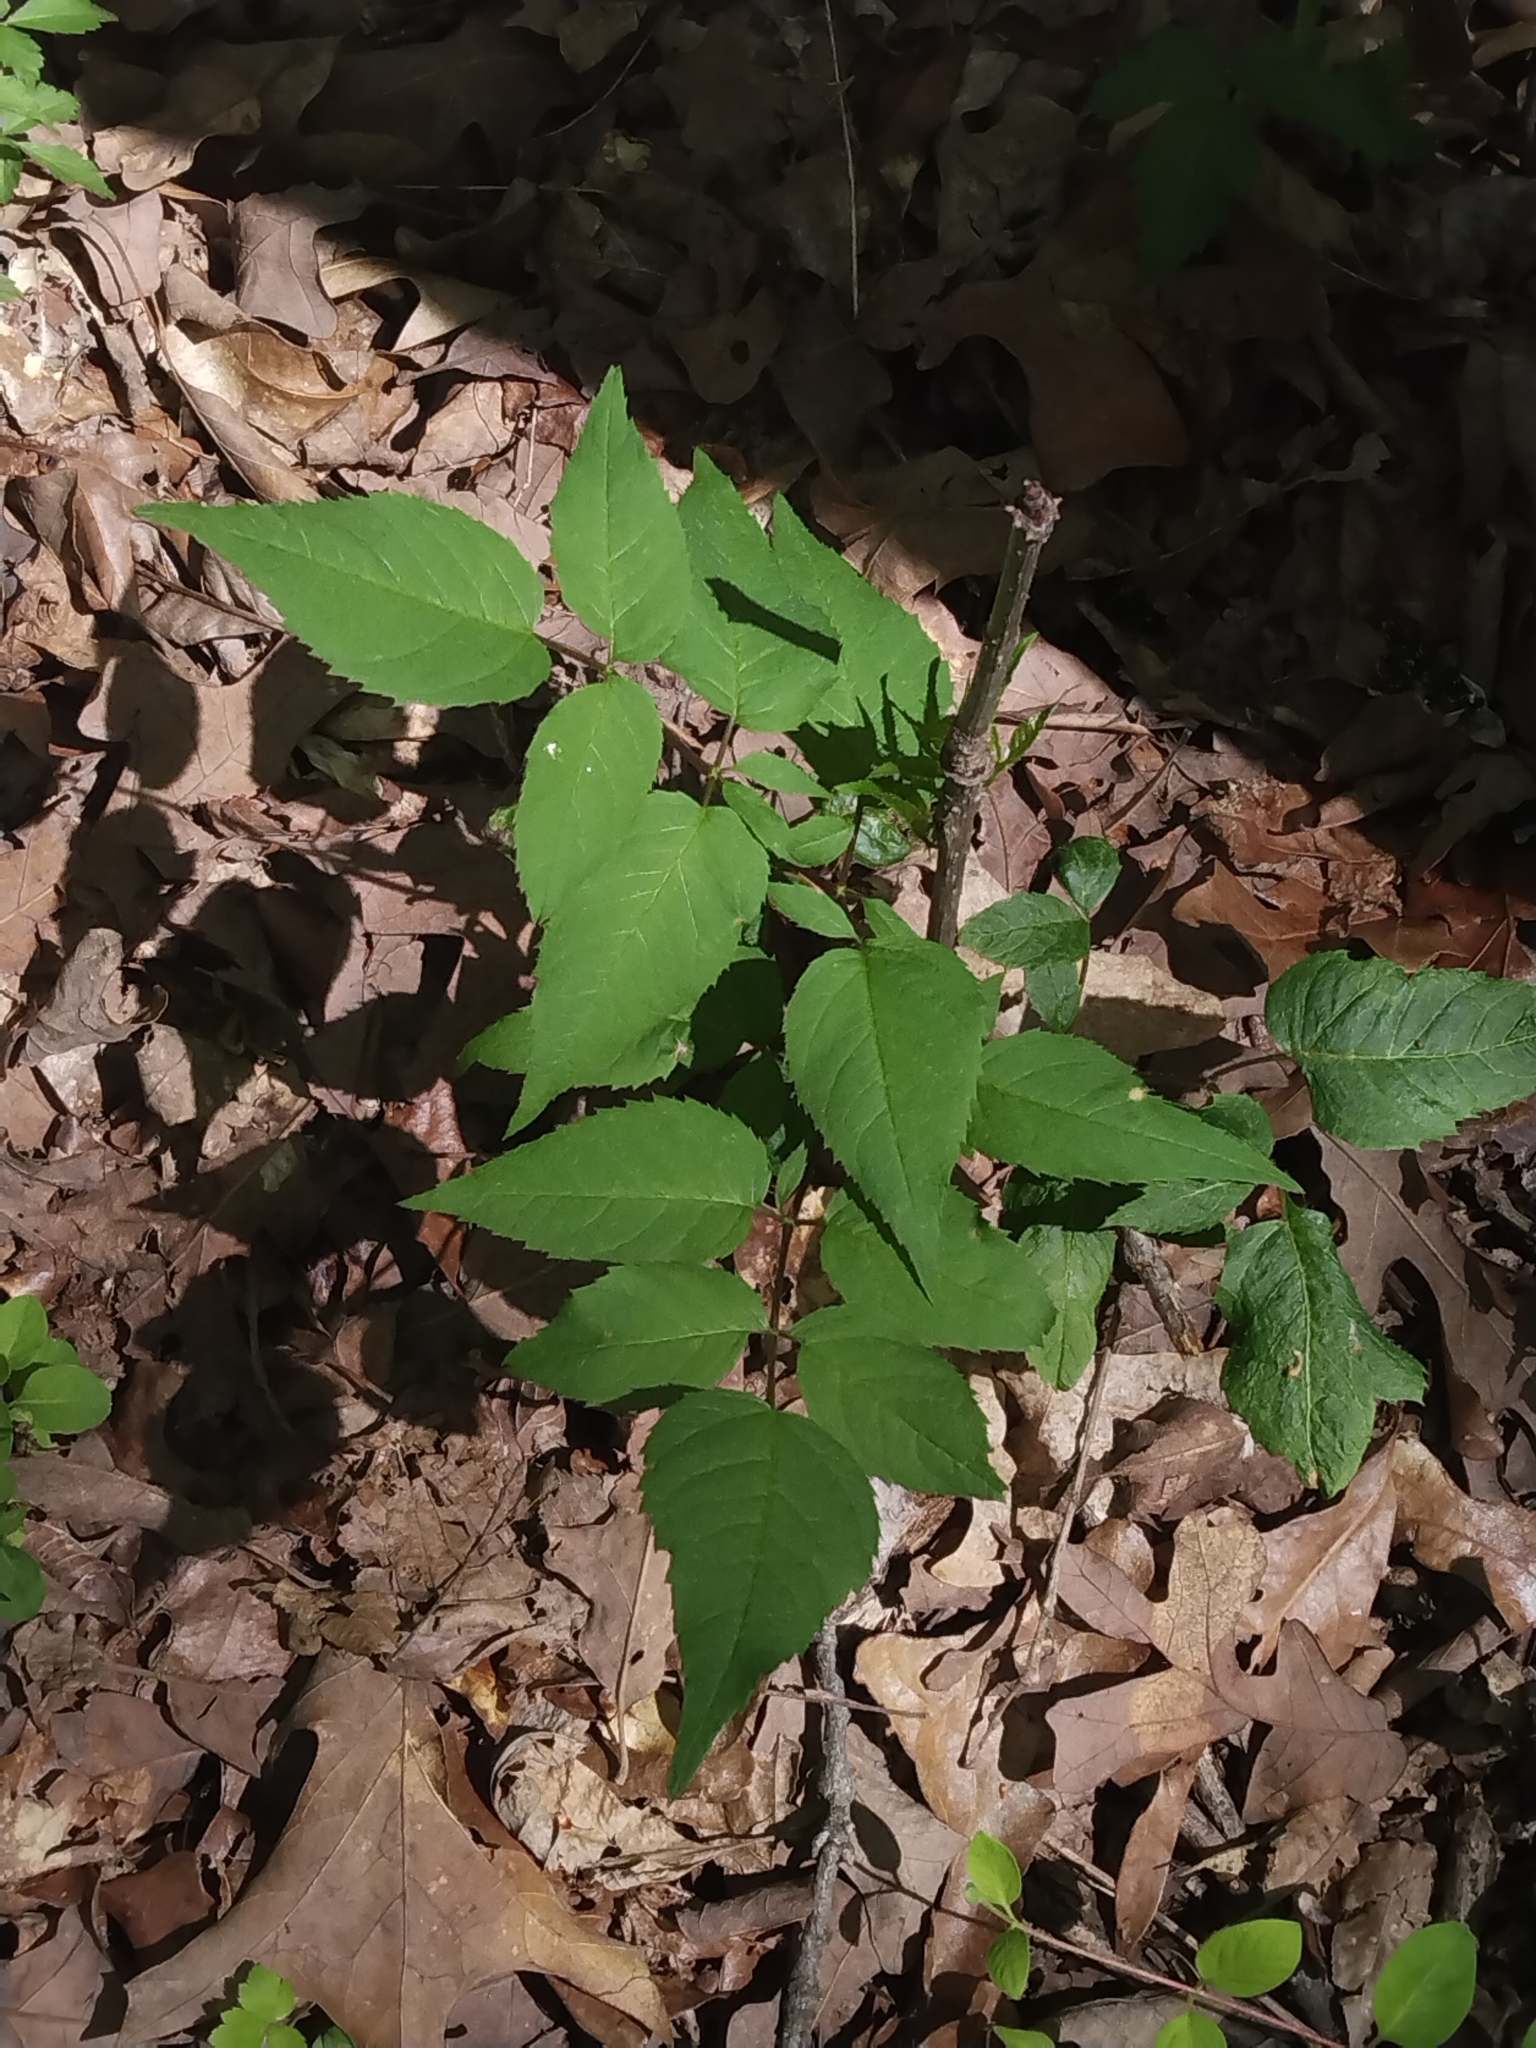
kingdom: Plantae
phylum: Tracheophyta
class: Magnoliopsida
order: Apiales
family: Araliaceae
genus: Aralia
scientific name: Aralia spinosa
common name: Hercules'-club
